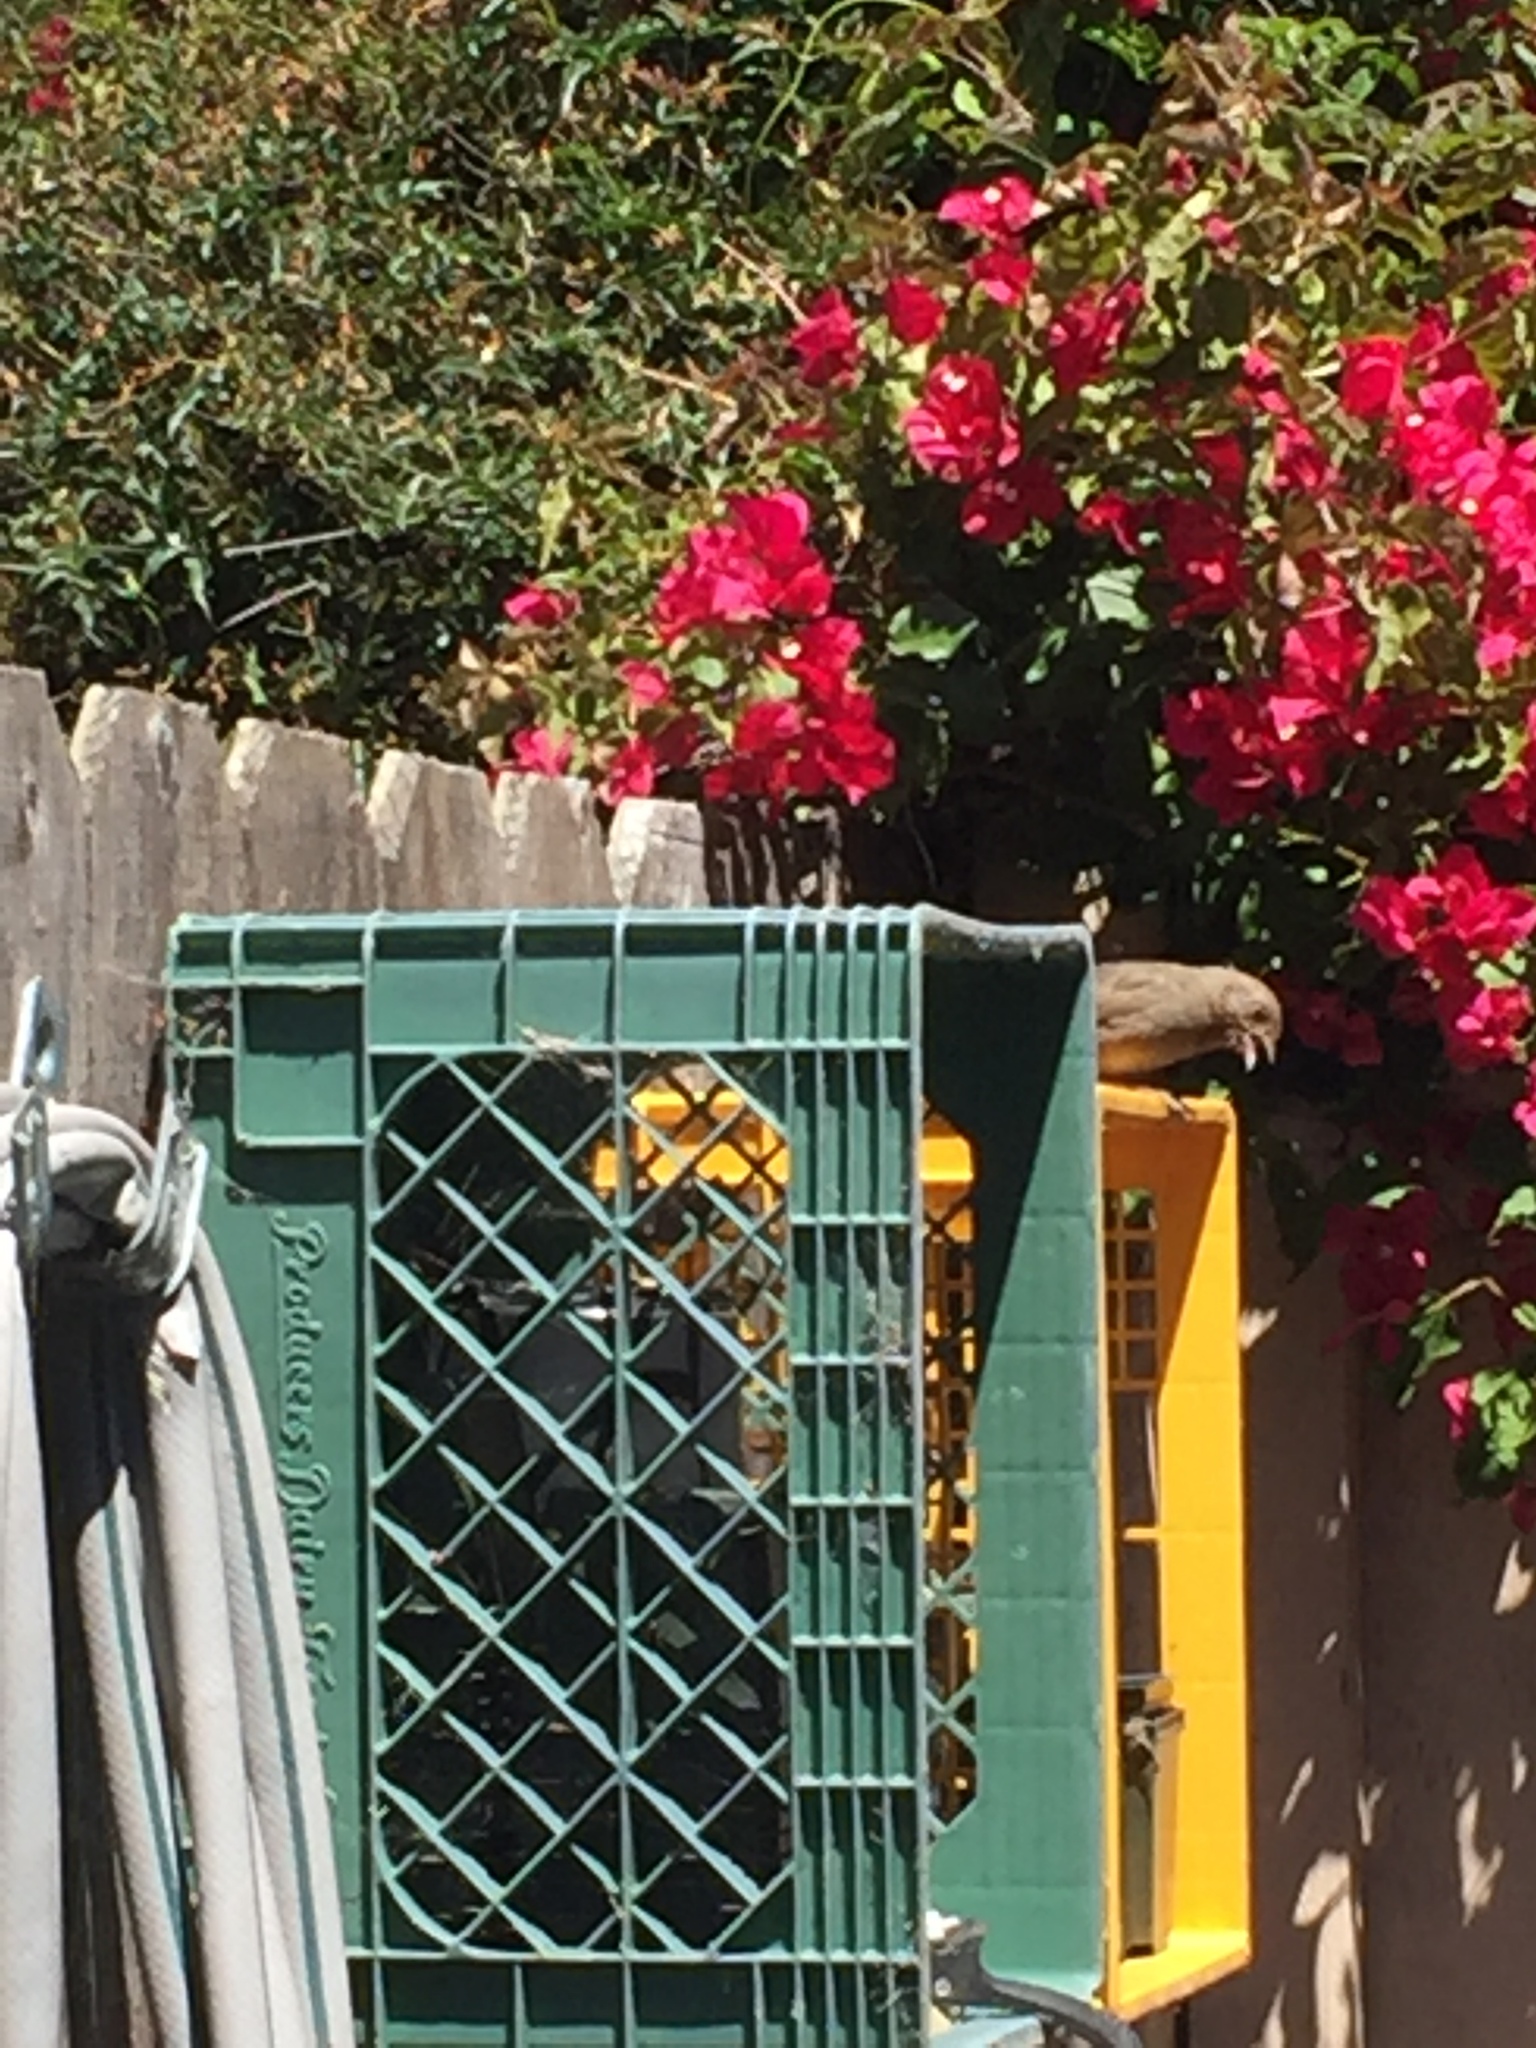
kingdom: Animalia
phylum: Chordata
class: Aves
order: Passeriformes
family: Passerellidae
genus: Melozone
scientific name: Melozone crissalis
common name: California towhee
